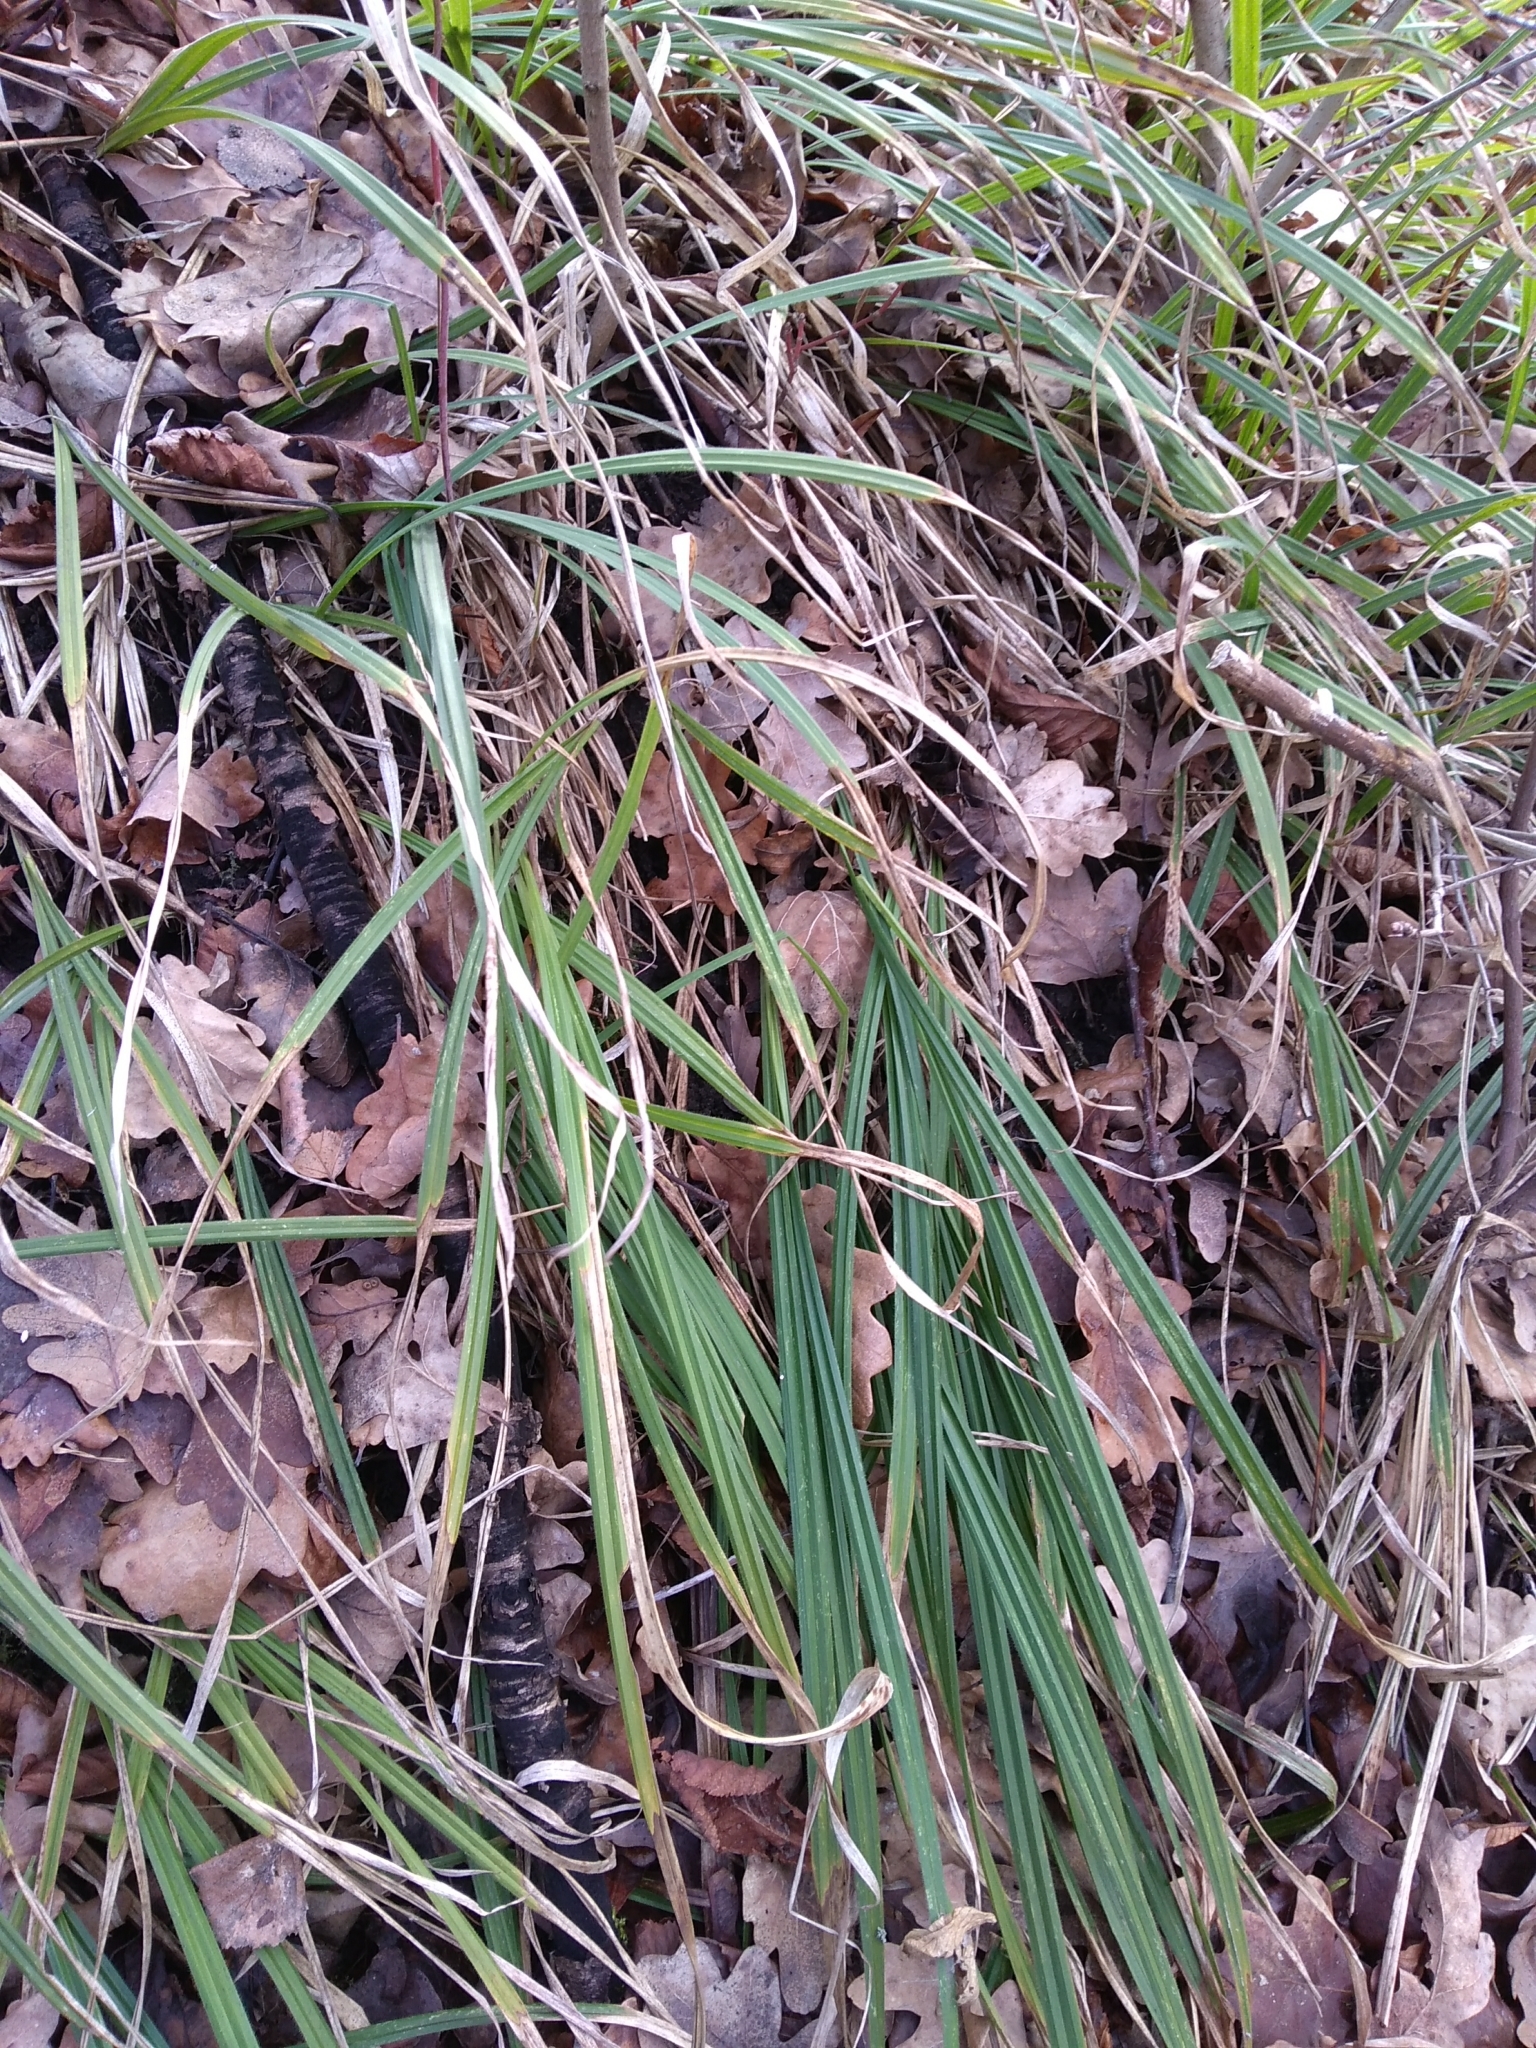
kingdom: Plantae
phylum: Tracheophyta
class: Liliopsida
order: Poales
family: Cyperaceae
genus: Carex
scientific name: Carex pilosa
